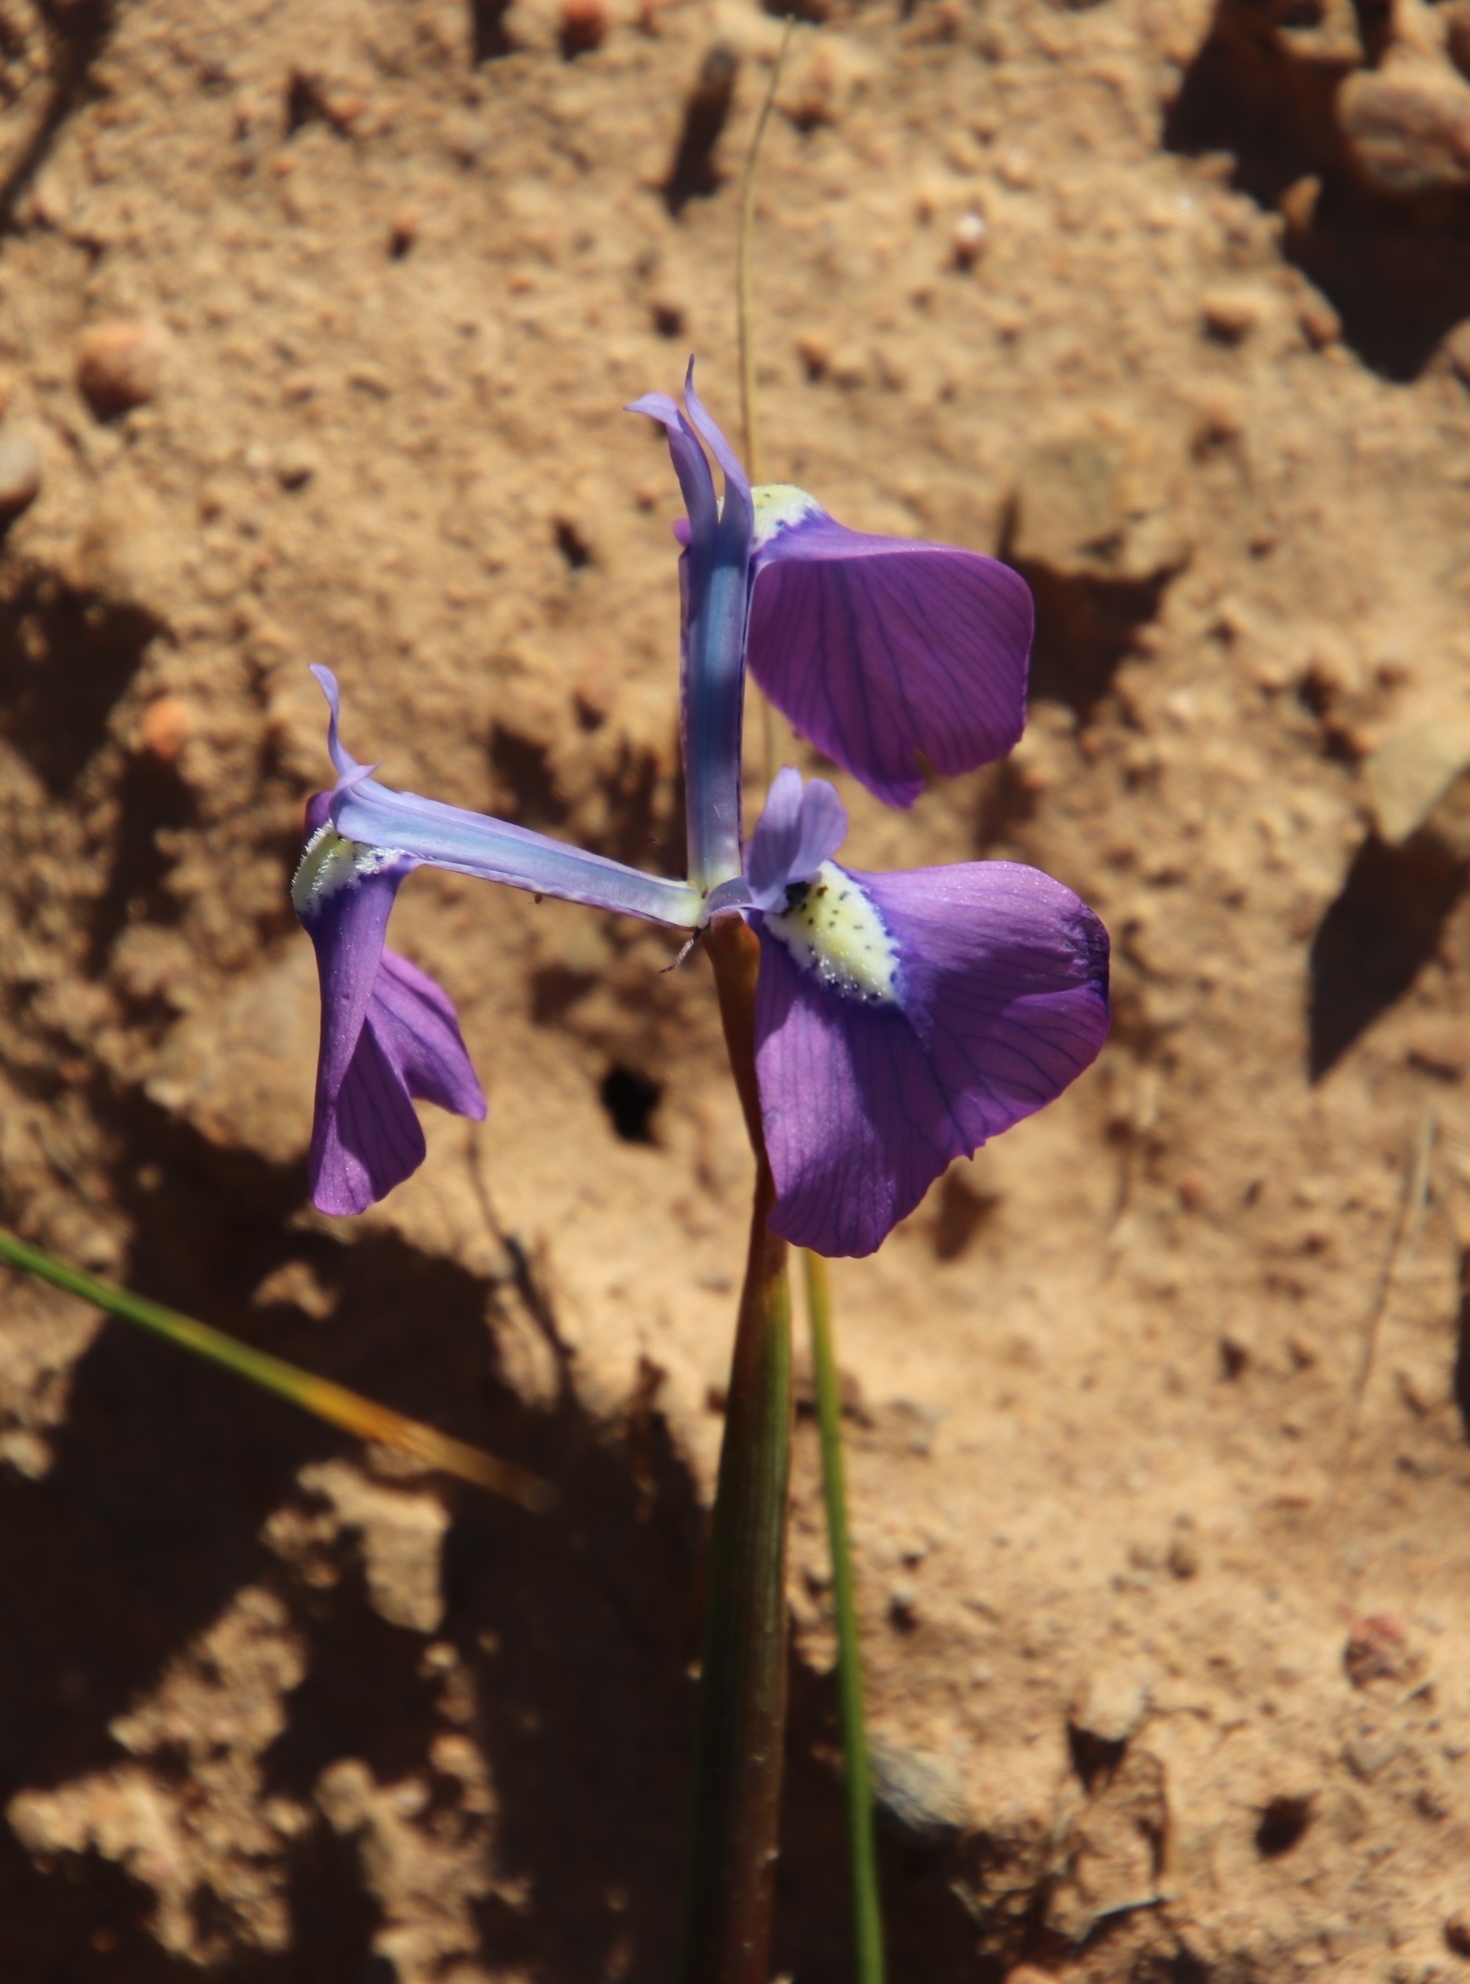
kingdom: Plantae
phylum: Tracheophyta
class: Liliopsida
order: Asparagales
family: Iridaceae
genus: Moraea
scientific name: Moraea grandis
